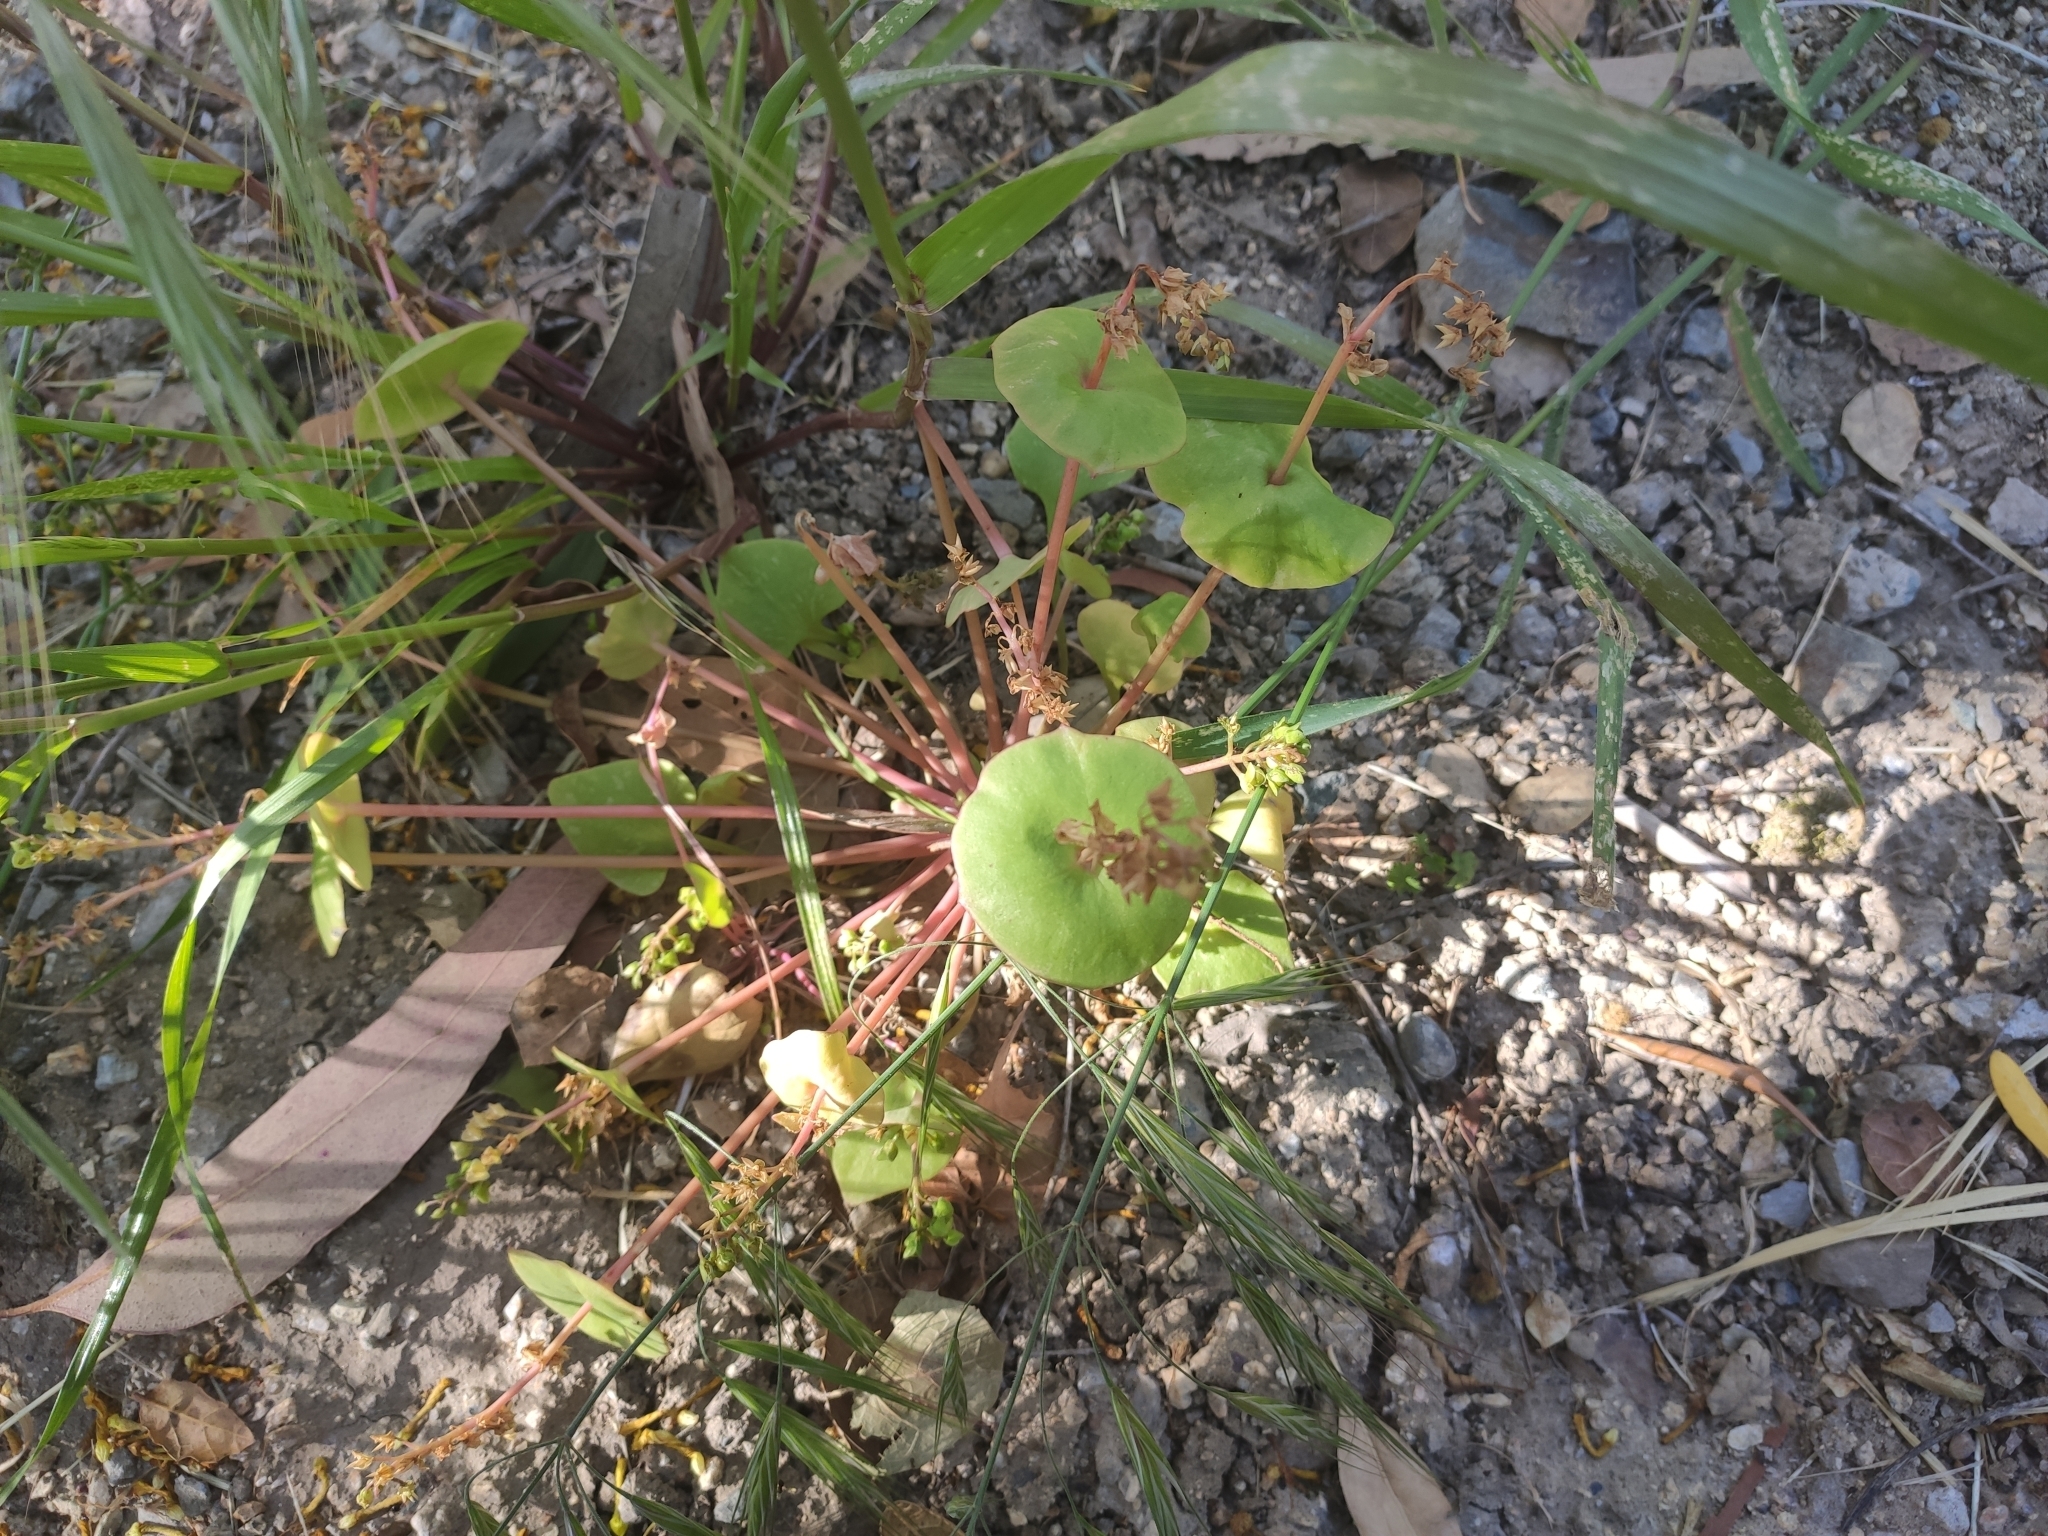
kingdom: Plantae
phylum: Tracheophyta
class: Magnoliopsida
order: Caryophyllales
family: Montiaceae
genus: Claytonia
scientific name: Claytonia perfoliata
